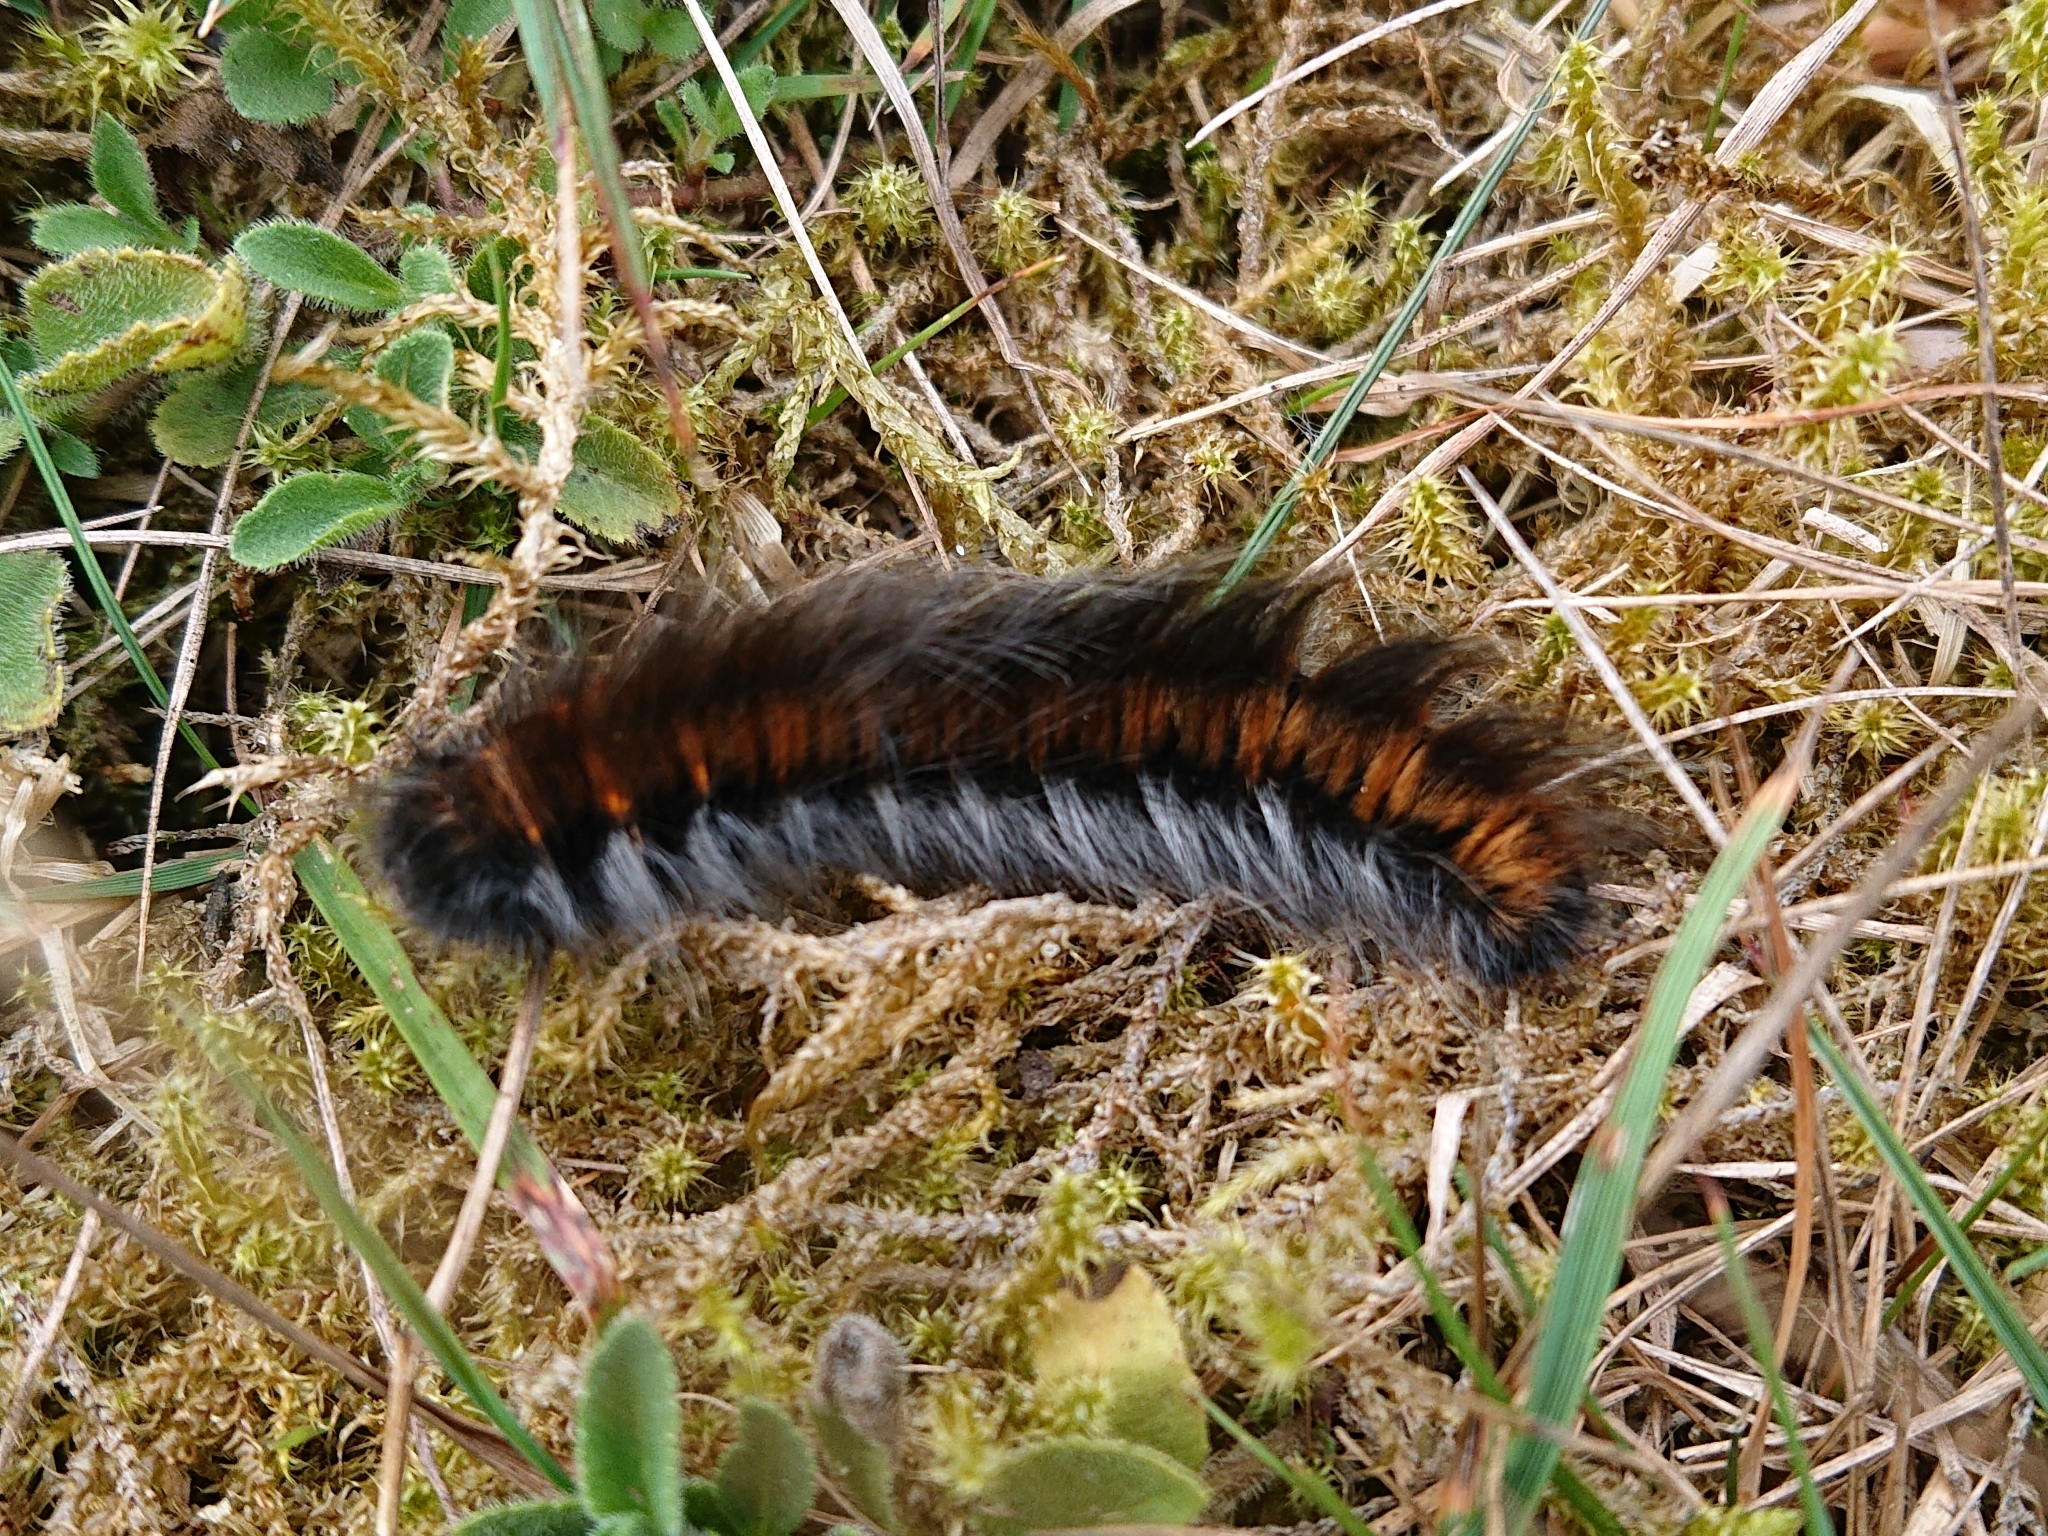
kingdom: Animalia
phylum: Arthropoda
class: Insecta
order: Lepidoptera
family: Lasiocampidae
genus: Macrothylacia
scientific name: Macrothylacia rubi
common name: Fox moth
